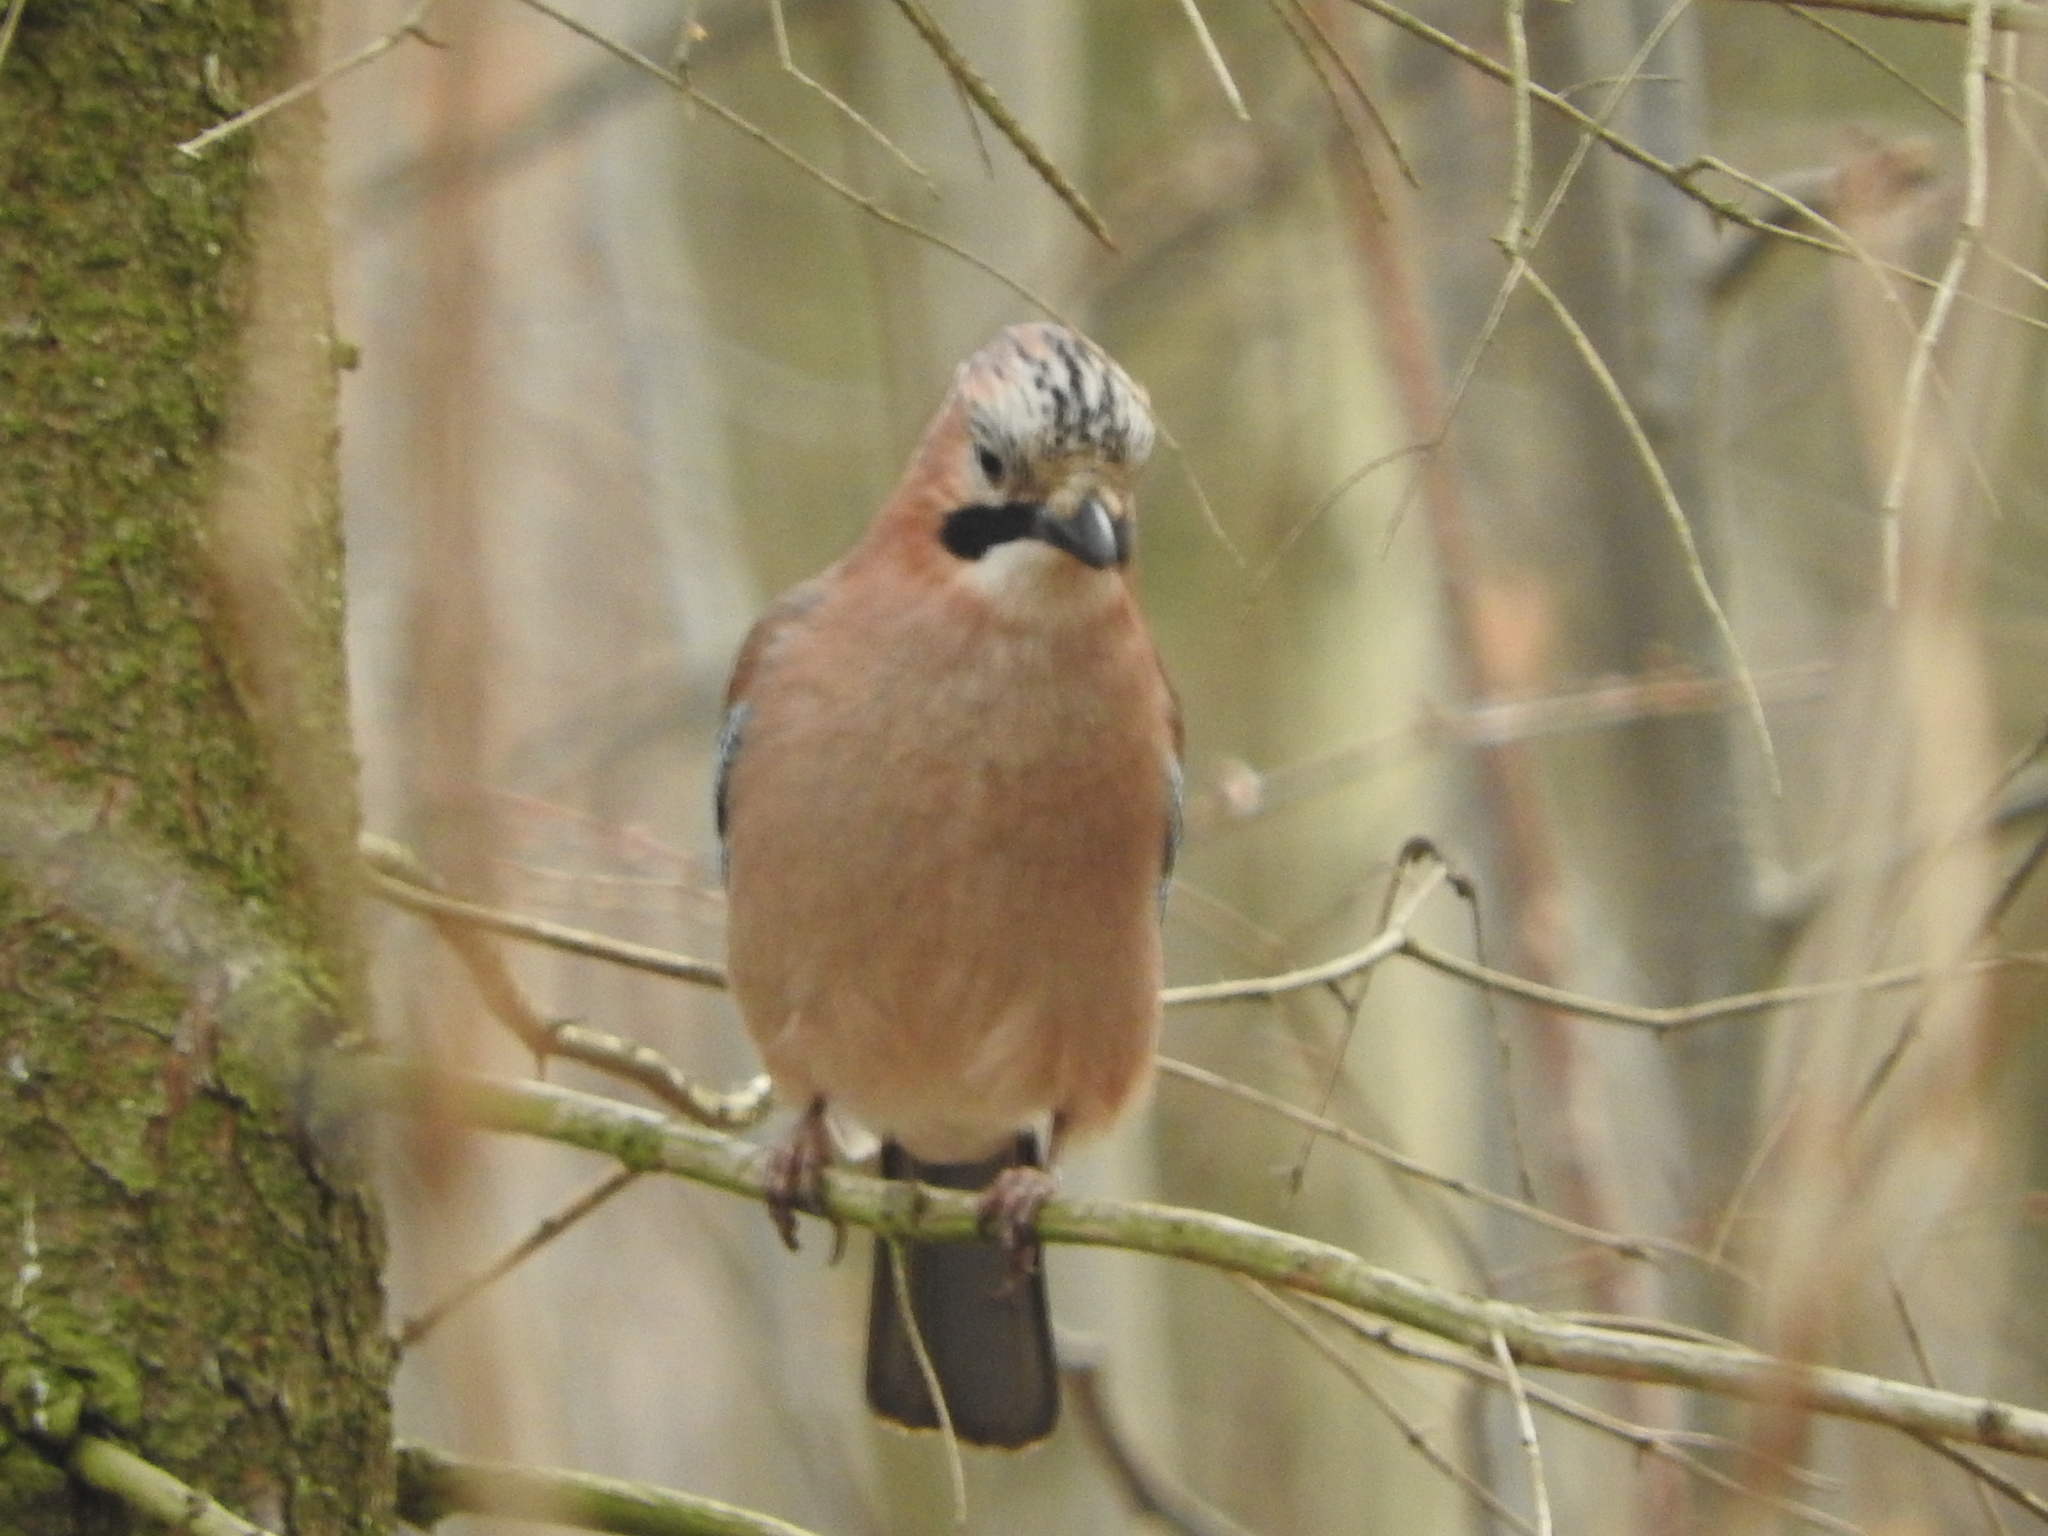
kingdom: Animalia
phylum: Chordata
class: Aves
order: Passeriformes
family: Corvidae
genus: Garrulus
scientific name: Garrulus glandarius
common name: Eurasian jay
